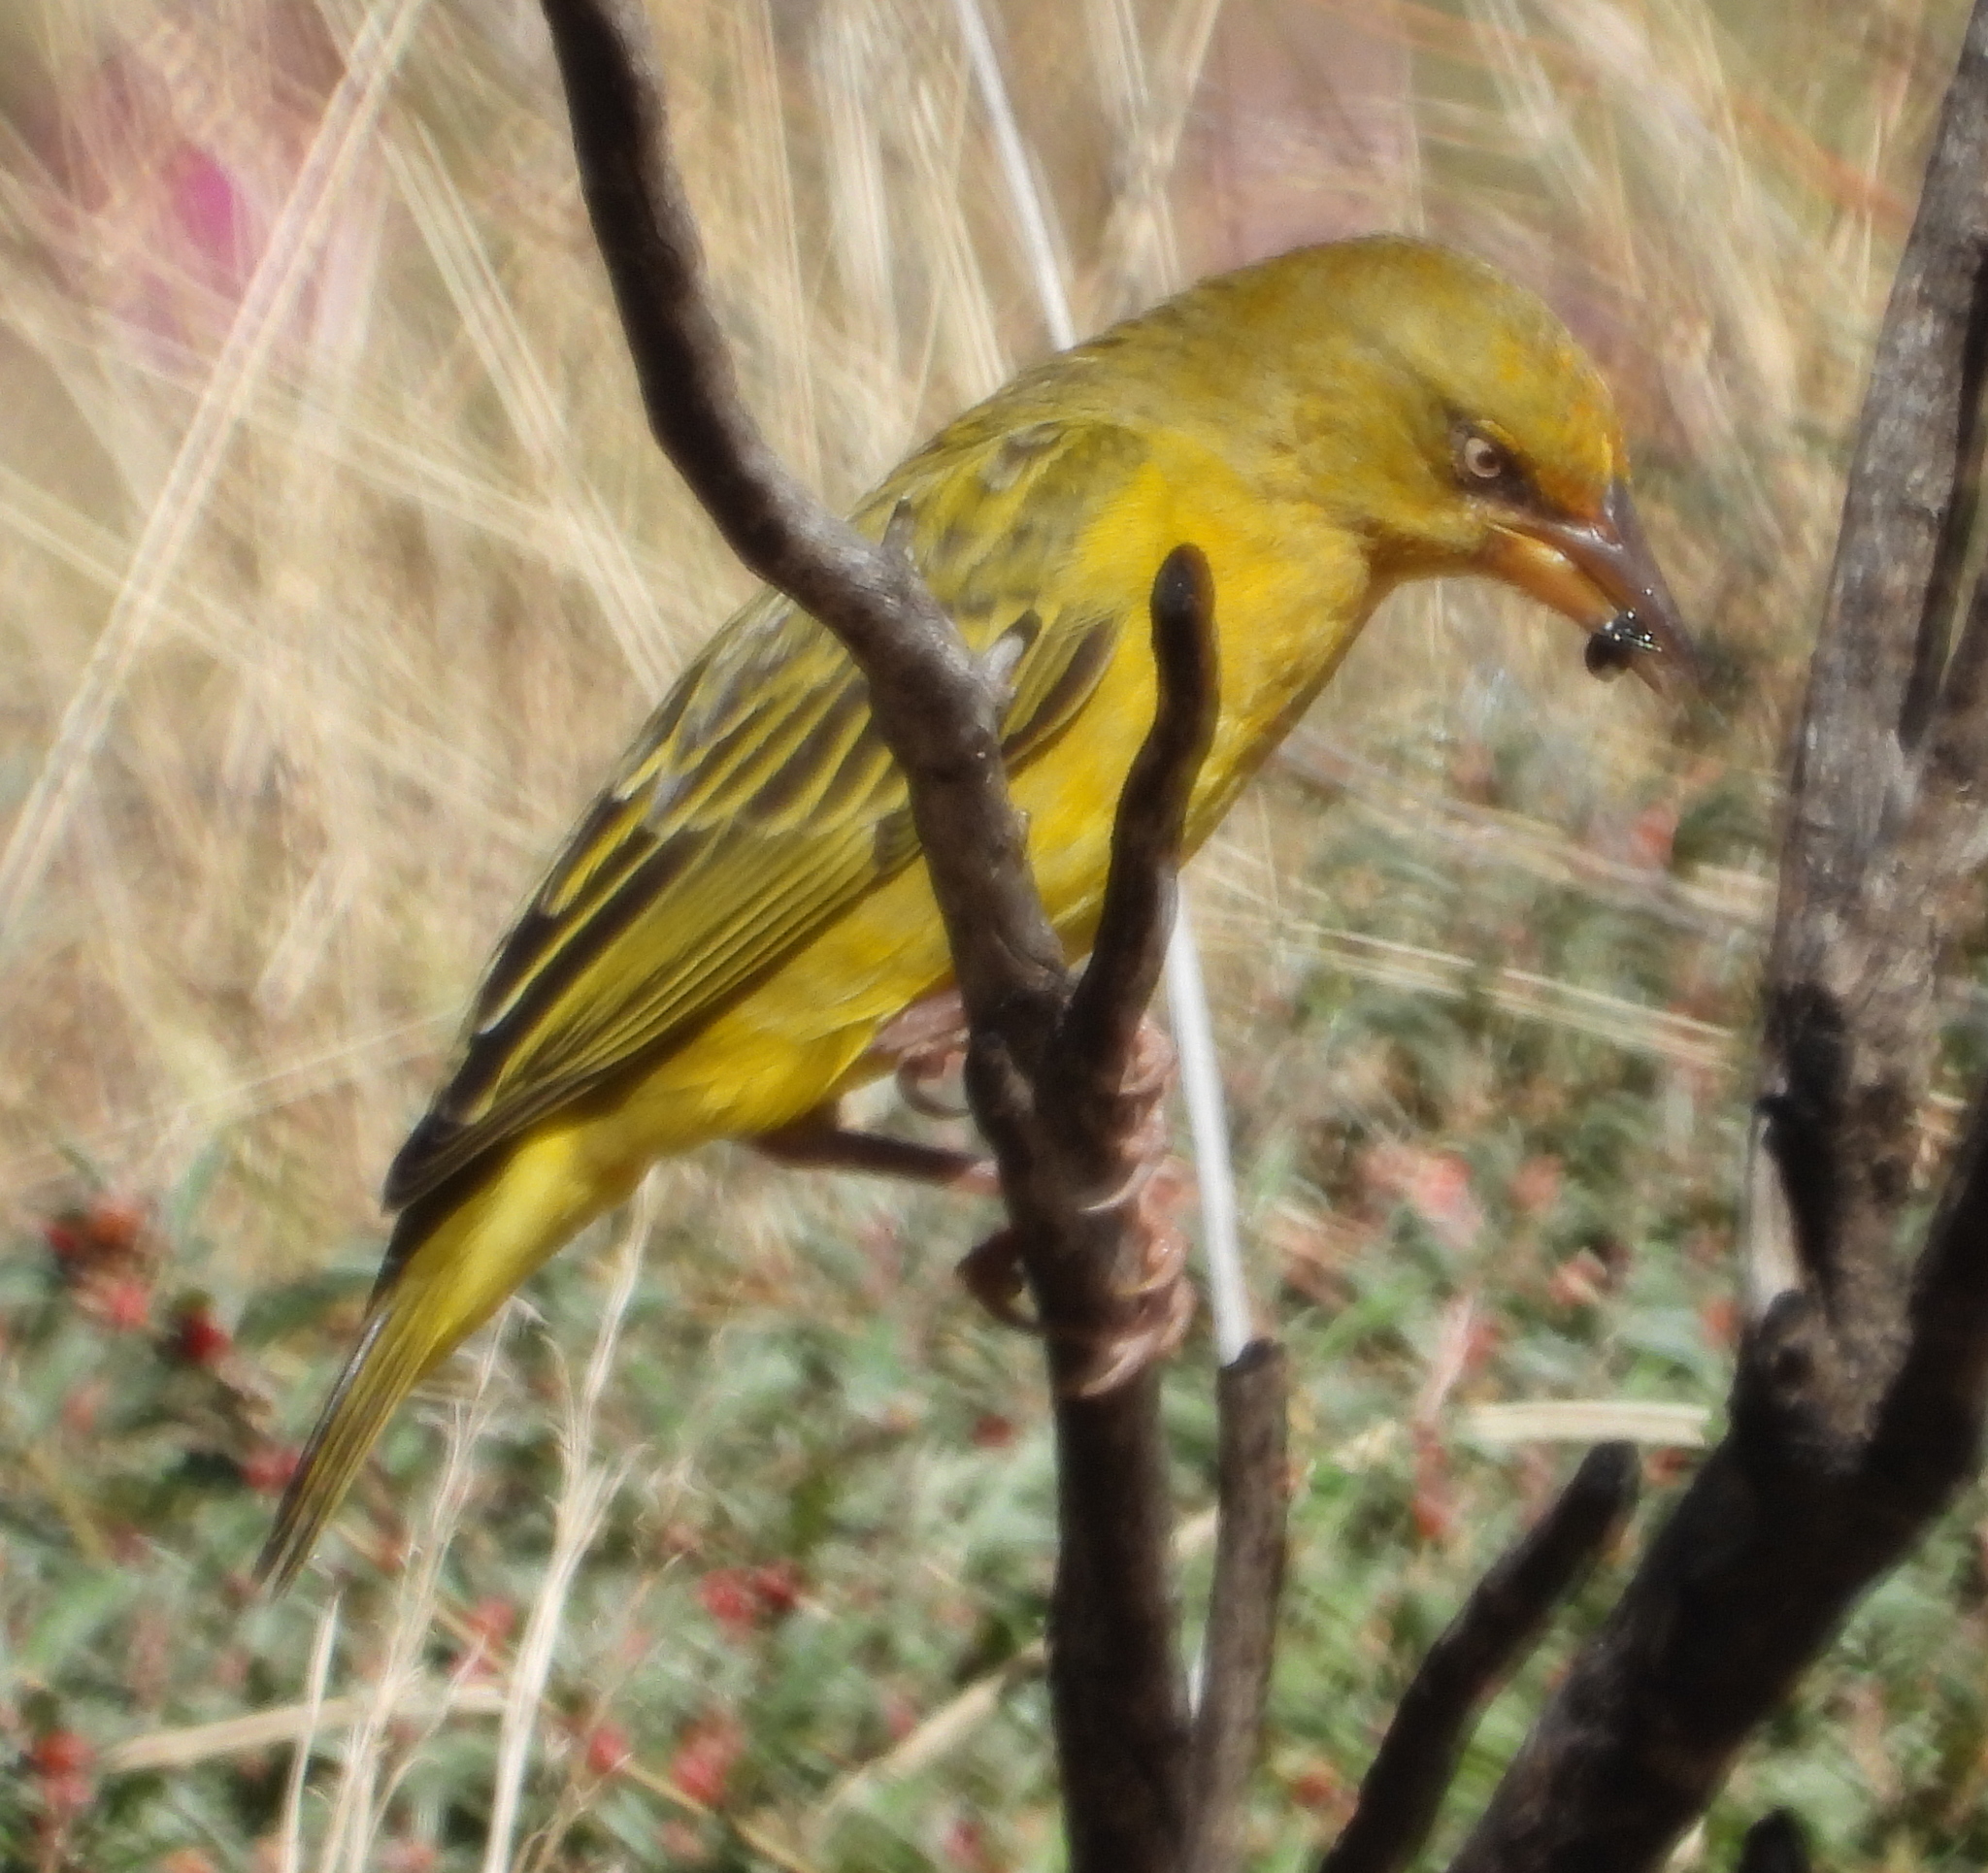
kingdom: Animalia
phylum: Chordata
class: Aves
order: Passeriformes
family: Ploceidae
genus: Ploceus
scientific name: Ploceus capensis
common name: Cape weaver
